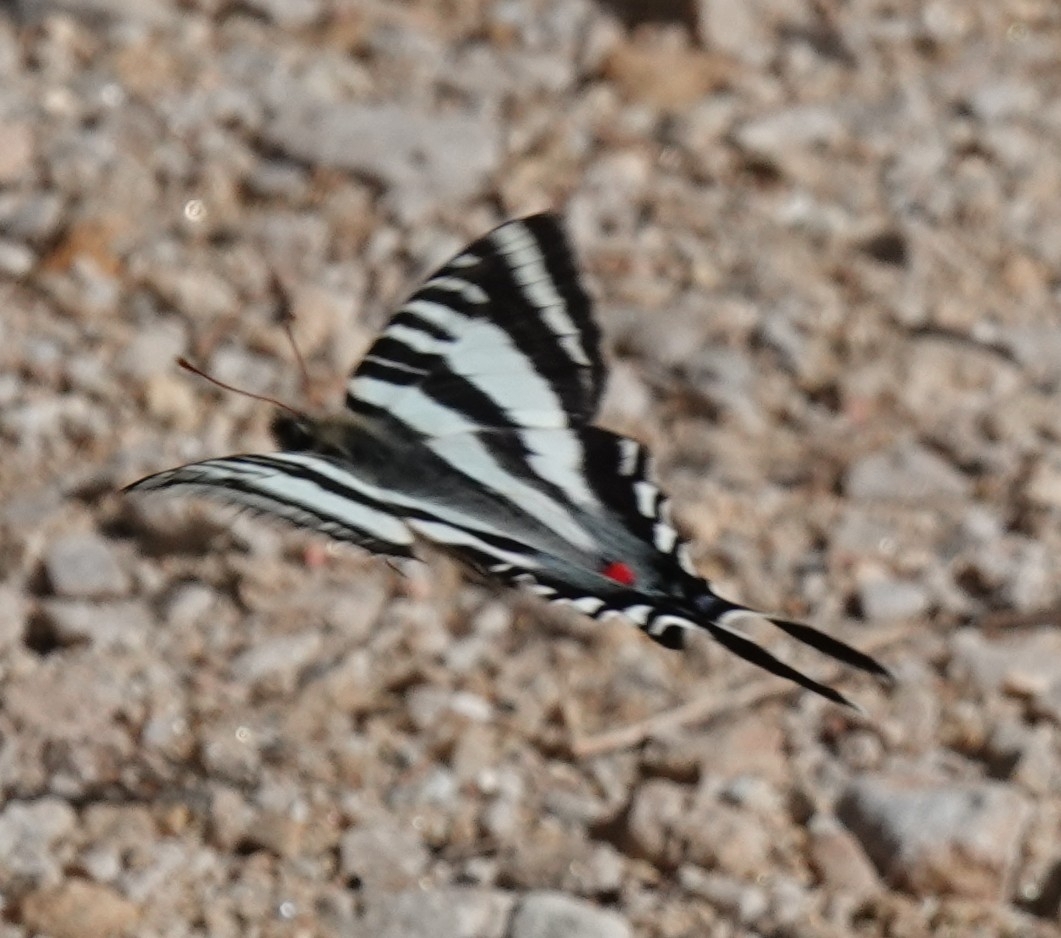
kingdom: Animalia
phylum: Arthropoda
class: Insecta
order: Lepidoptera
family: Papilionidae
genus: Protographium
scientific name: Protographium marcellus
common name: Zebra swallowtail
